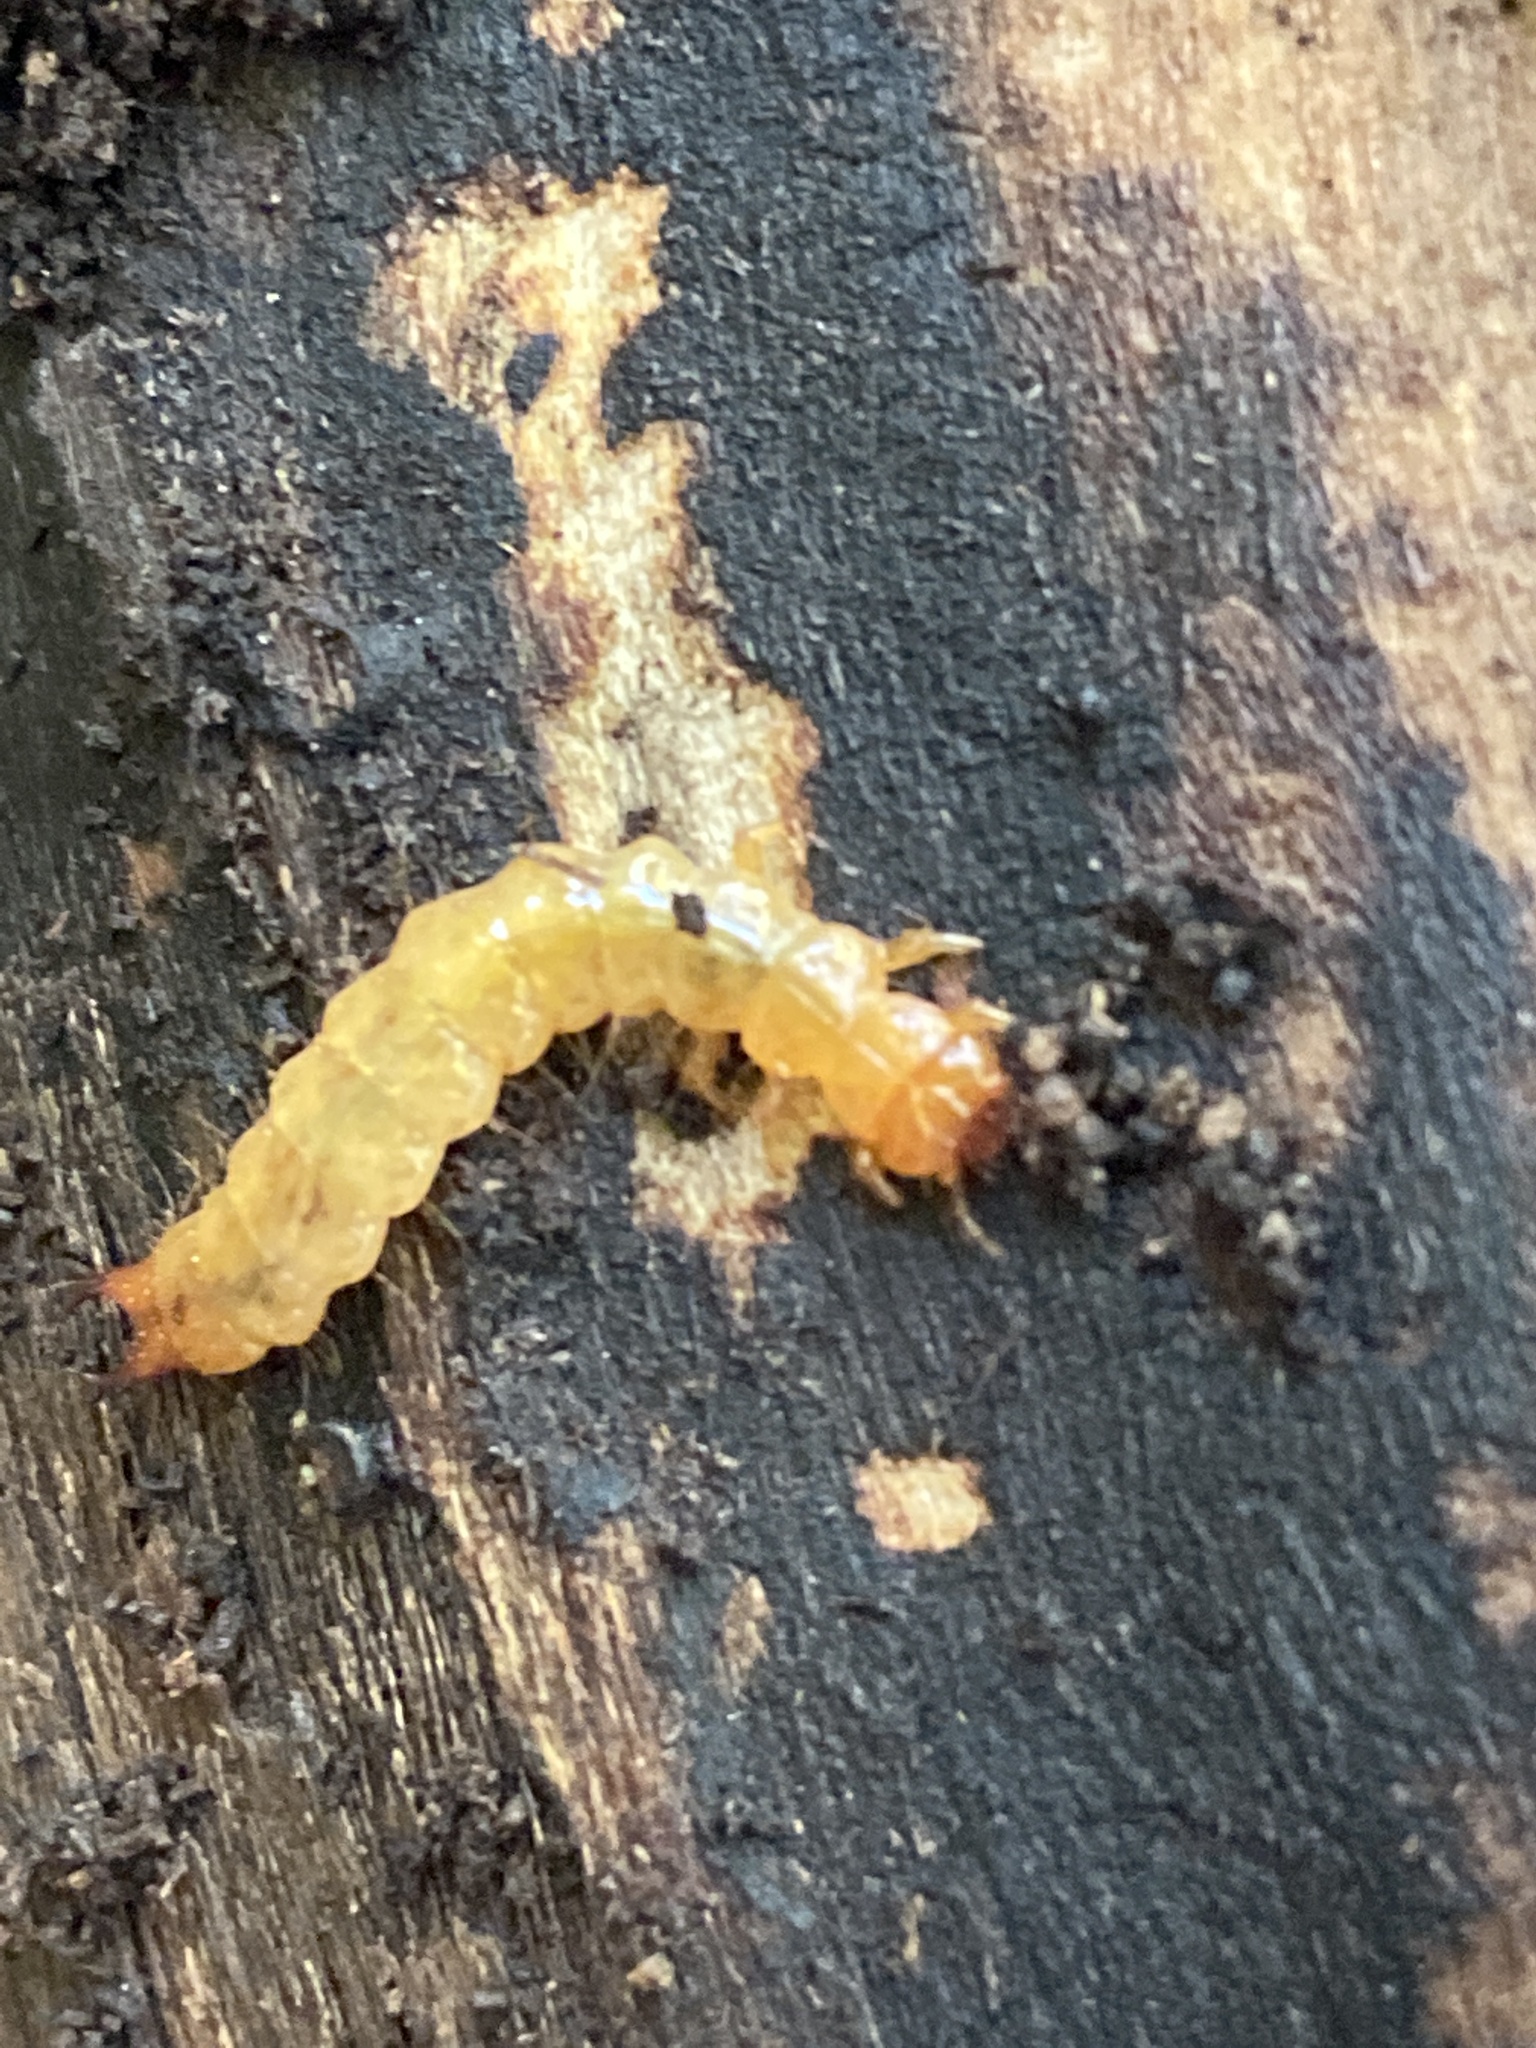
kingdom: Animalia
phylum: Arthropoda
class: Insecta
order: Coleoptera
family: Pyrochroidae
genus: Schizotus
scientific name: Schizotus pectinicornis
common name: Scarce cardinal beetle
